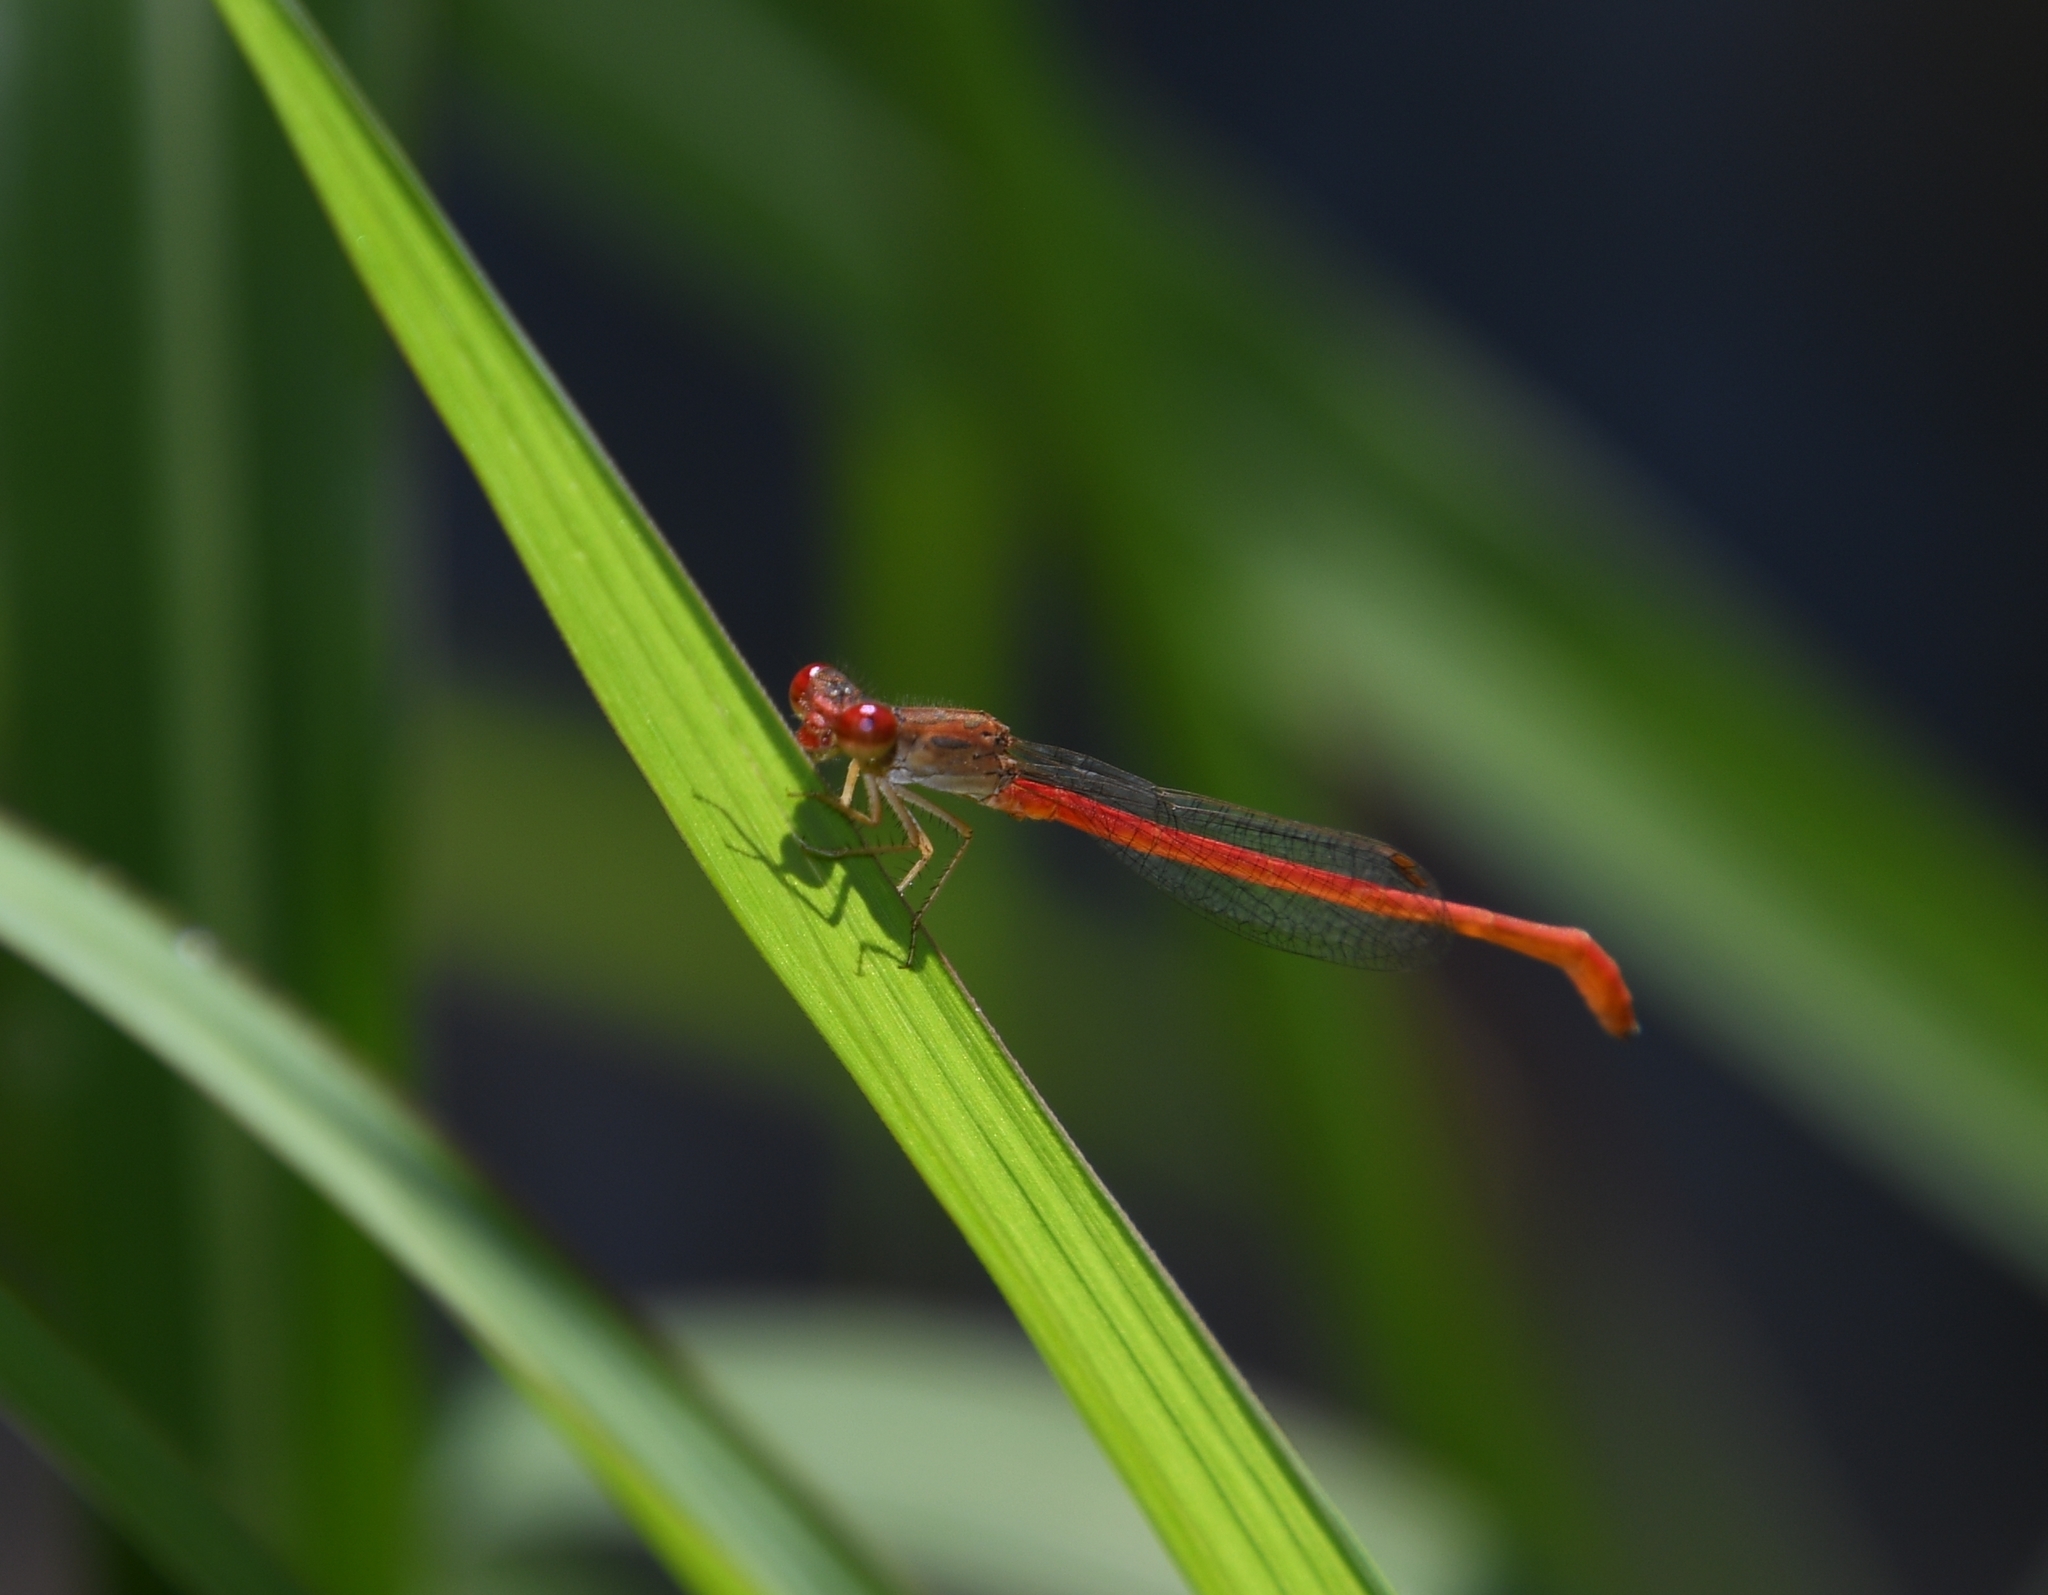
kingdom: Animalia
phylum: Arthropoda
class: Insecta
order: Odonata
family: Coenagrionidae
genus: Telebasis
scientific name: Telebasis salva
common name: Desert firetail
